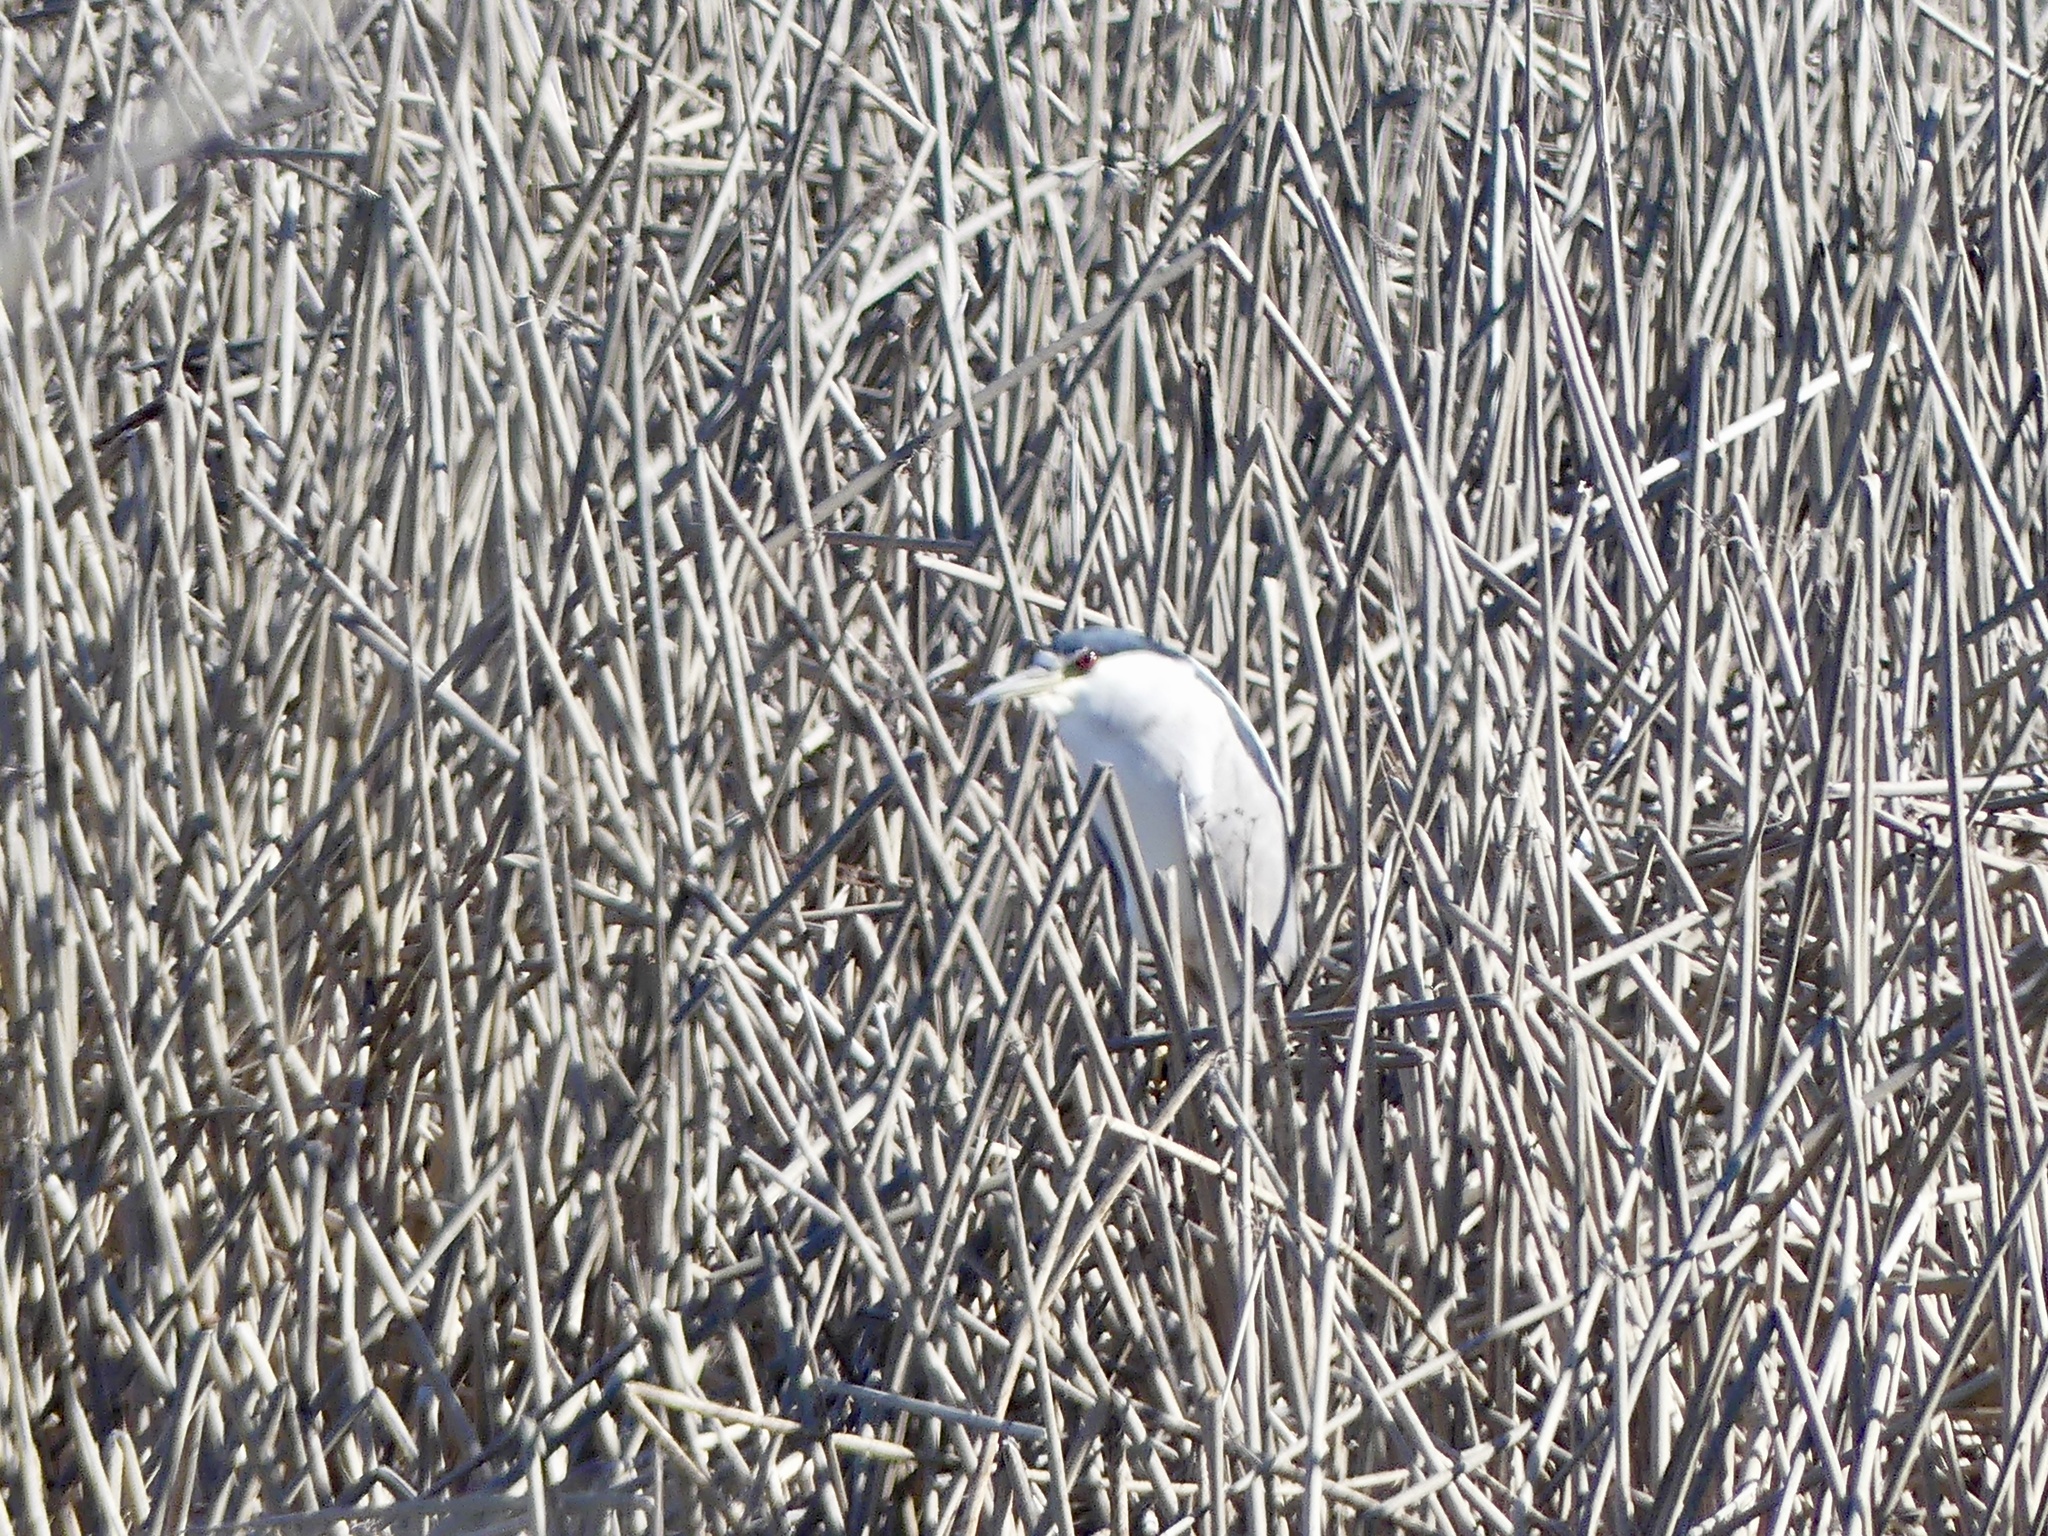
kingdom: Animalia
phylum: Chordata
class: Aves
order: Pelecaniformes
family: Ardeidae
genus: Nycticorax
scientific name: Nycticorax nycticorax
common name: Black-crowned night heron
